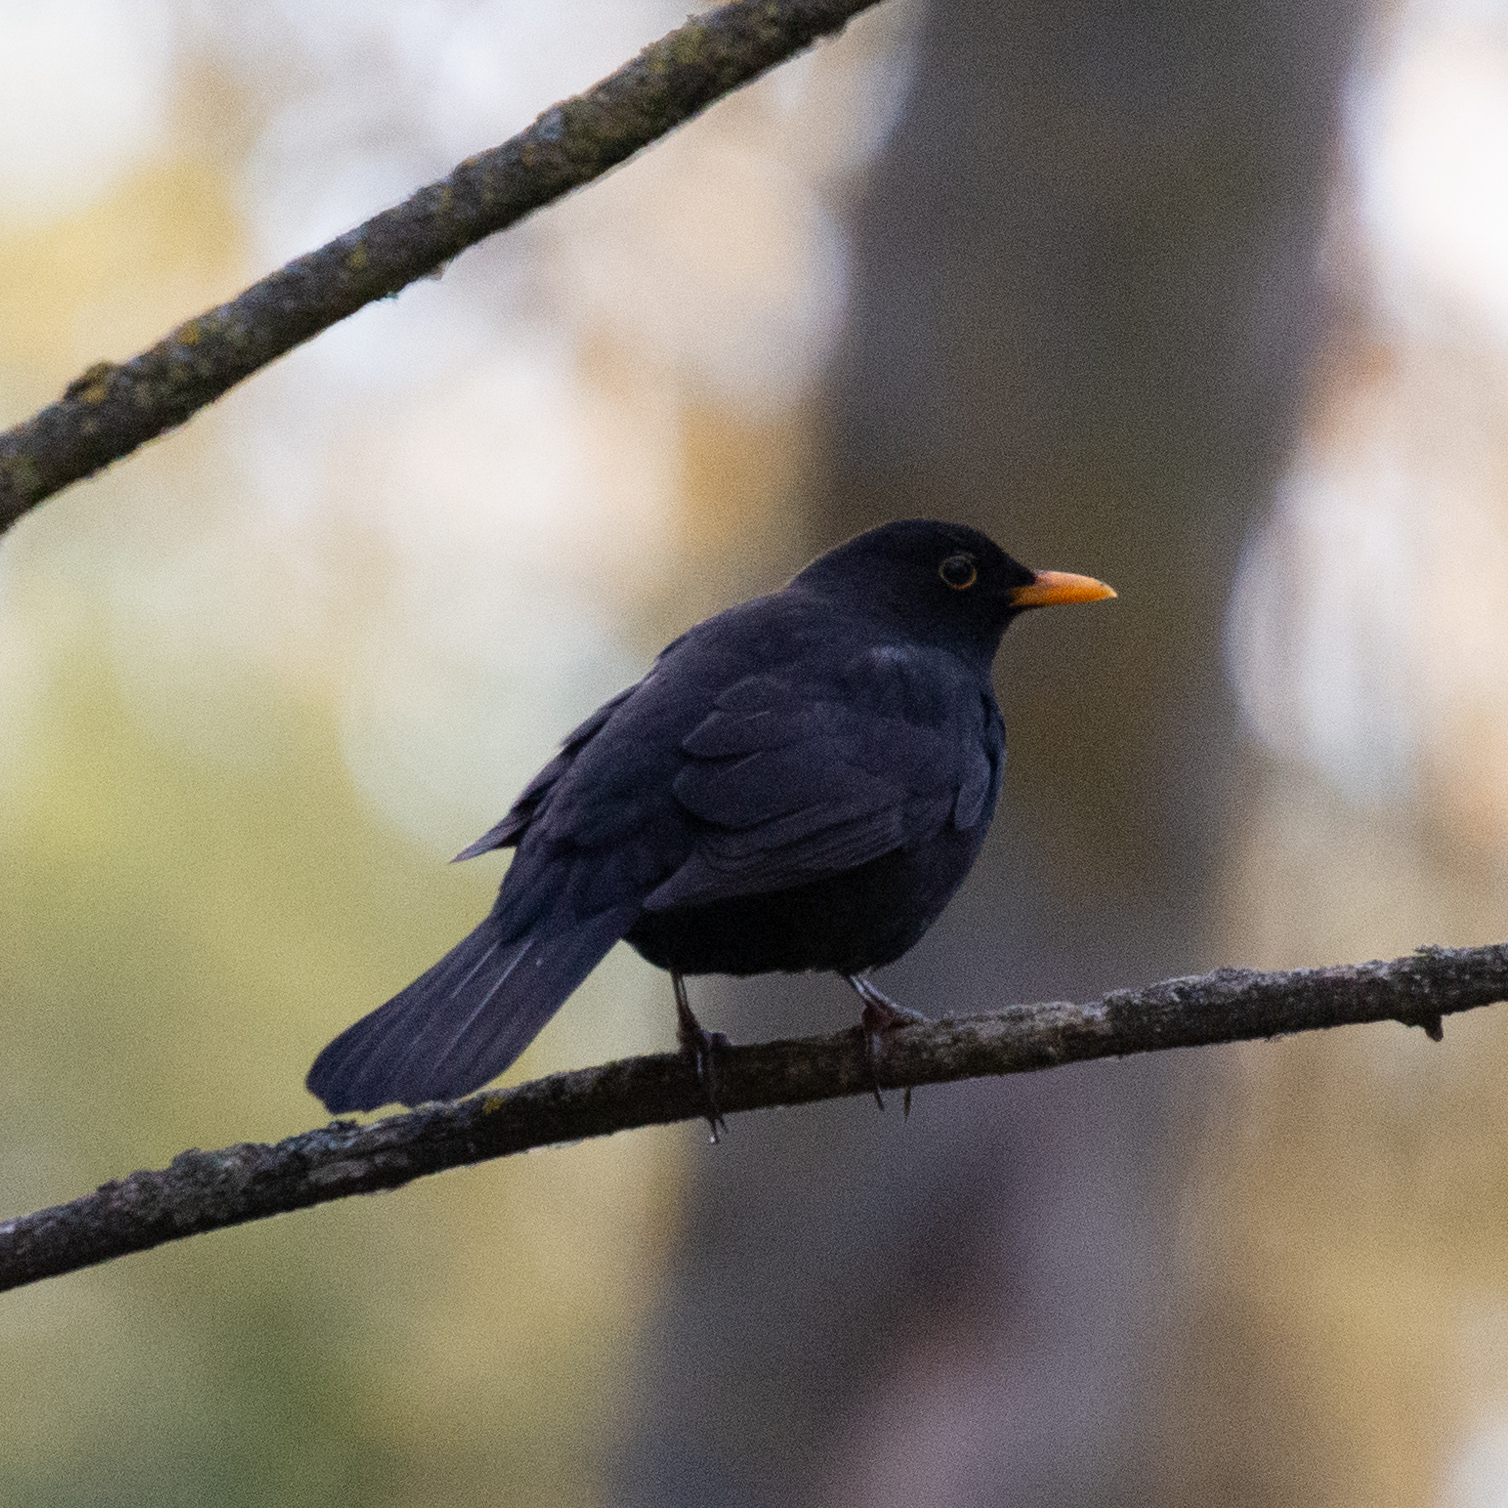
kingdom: Animalia
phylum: Chordata
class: Aves
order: Passeriformes
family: Turdidae
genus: Turdus
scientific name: Turdus merula
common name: Common blackbird
